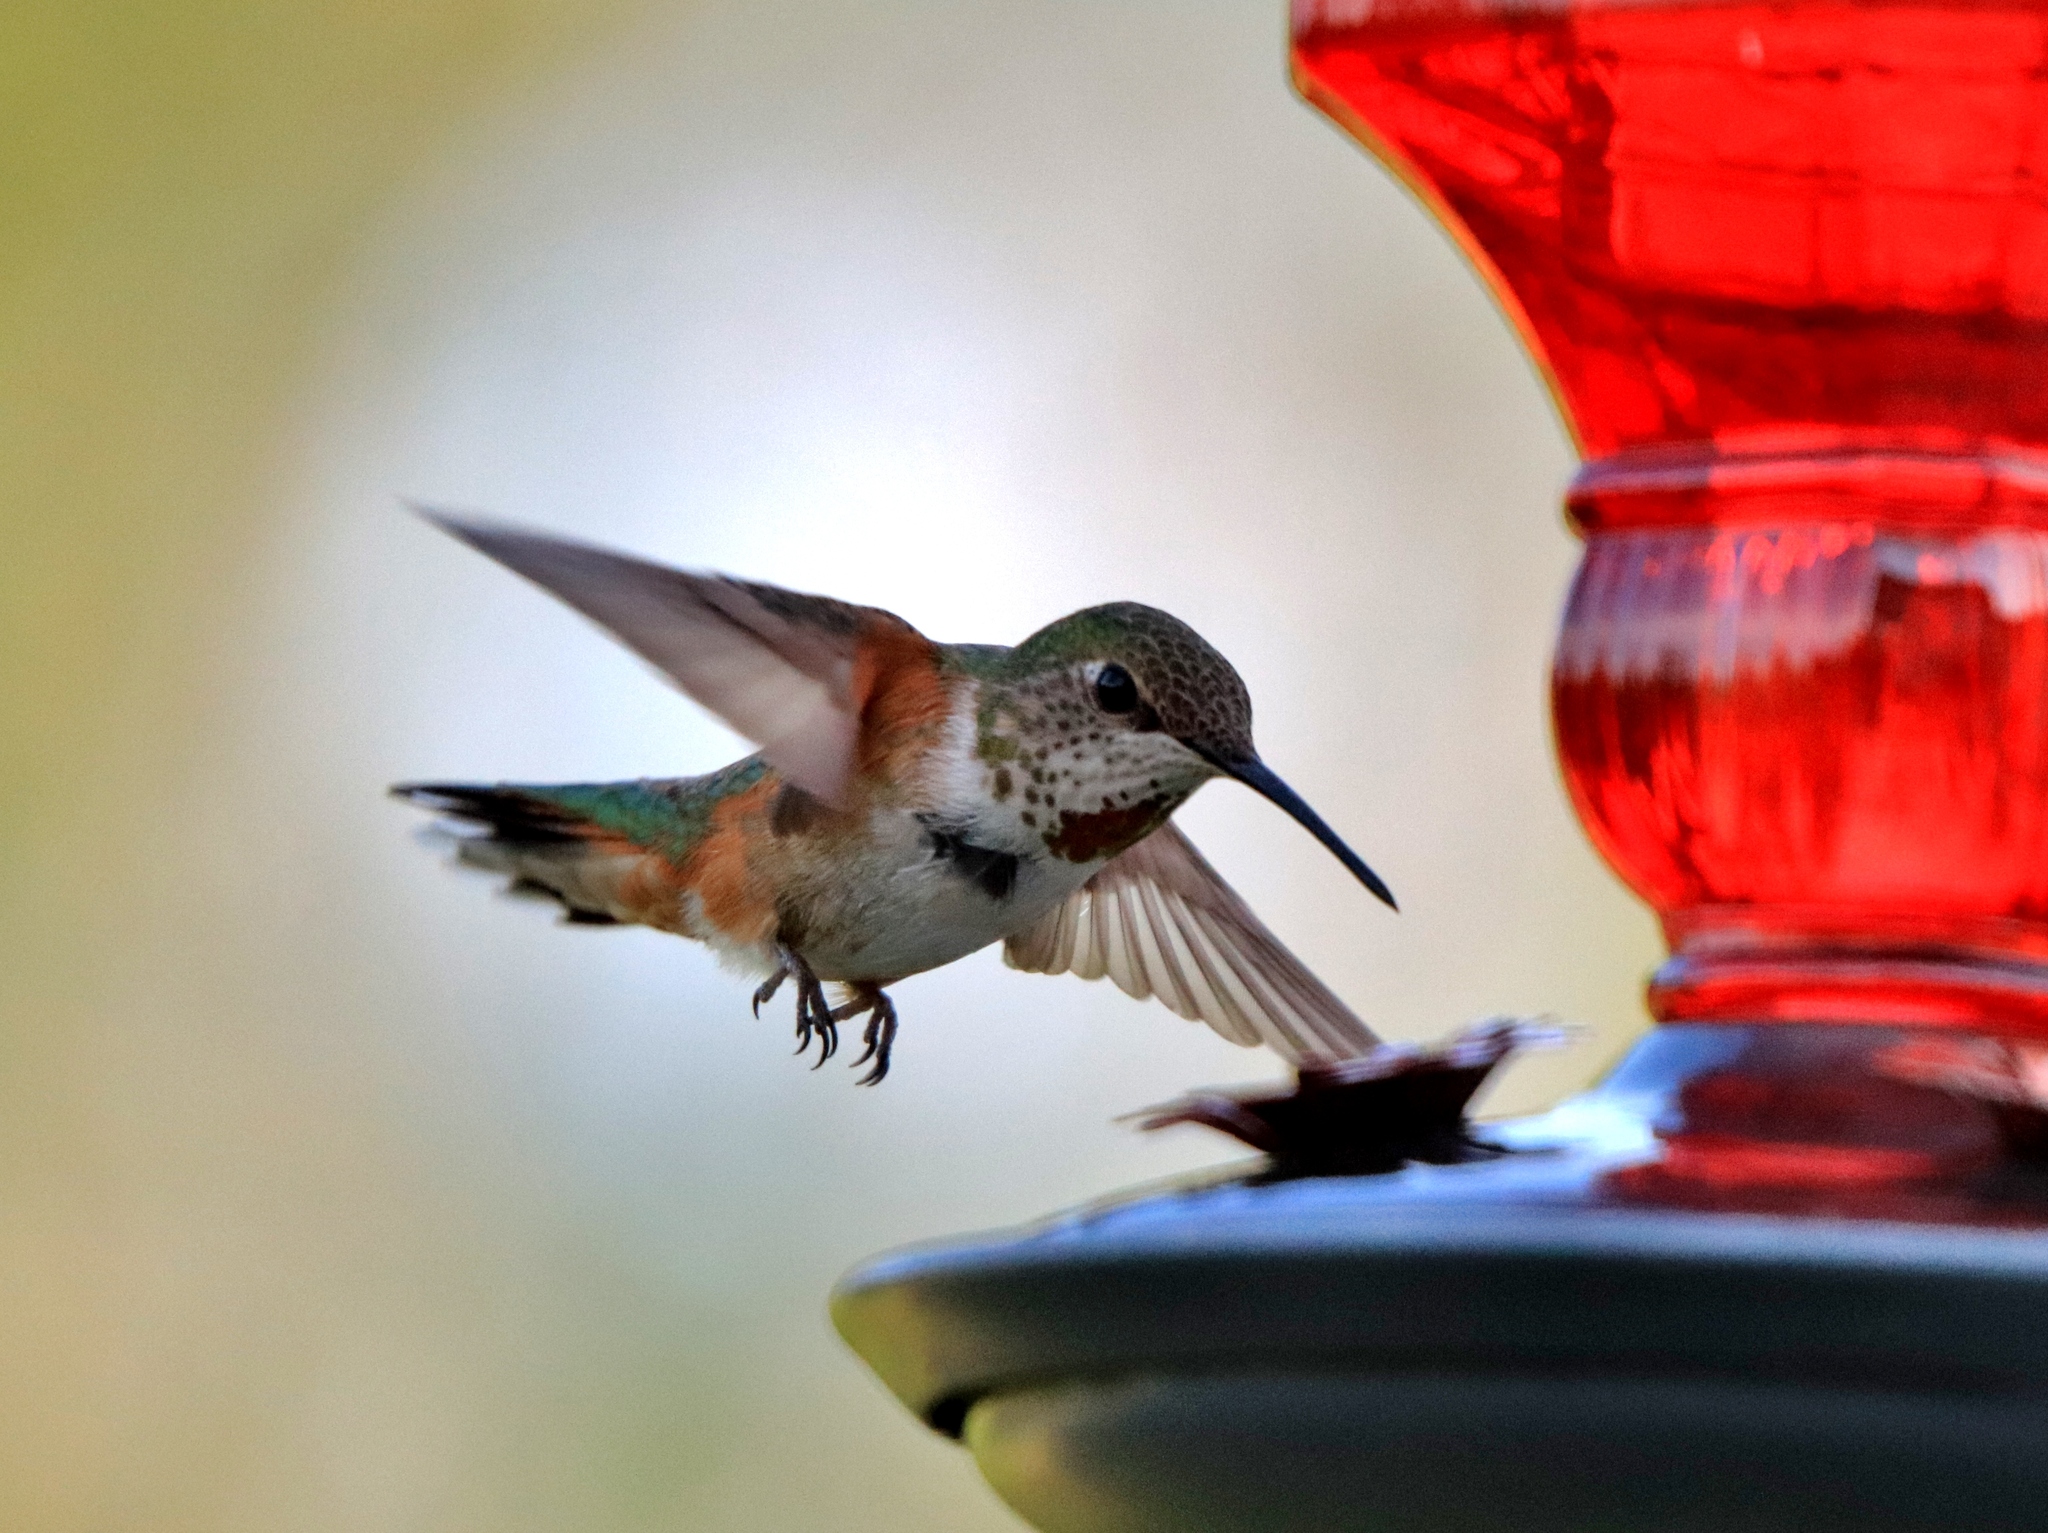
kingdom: Animalia
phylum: Chordata
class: Aves
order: Apodiformes
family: Trochilidae
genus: Selasphorus
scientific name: Selasphorus rufus
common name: Rufous hummingbird
